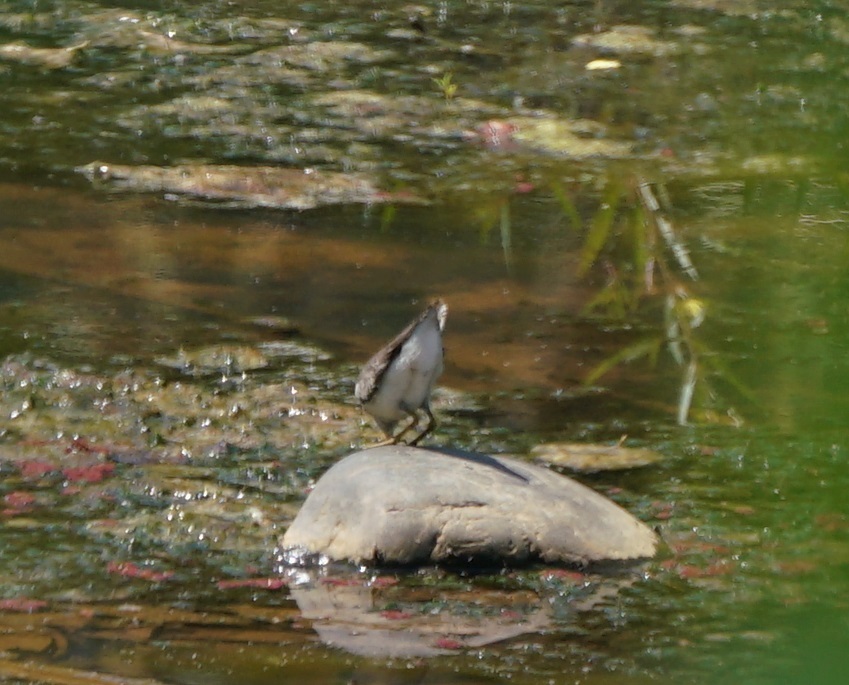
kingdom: Animalia
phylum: Chordata
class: Aves
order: Charadriiformes
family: Scolopacidae
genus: Actitis
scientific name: Actitis macularius
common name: Spotted sandpiper
